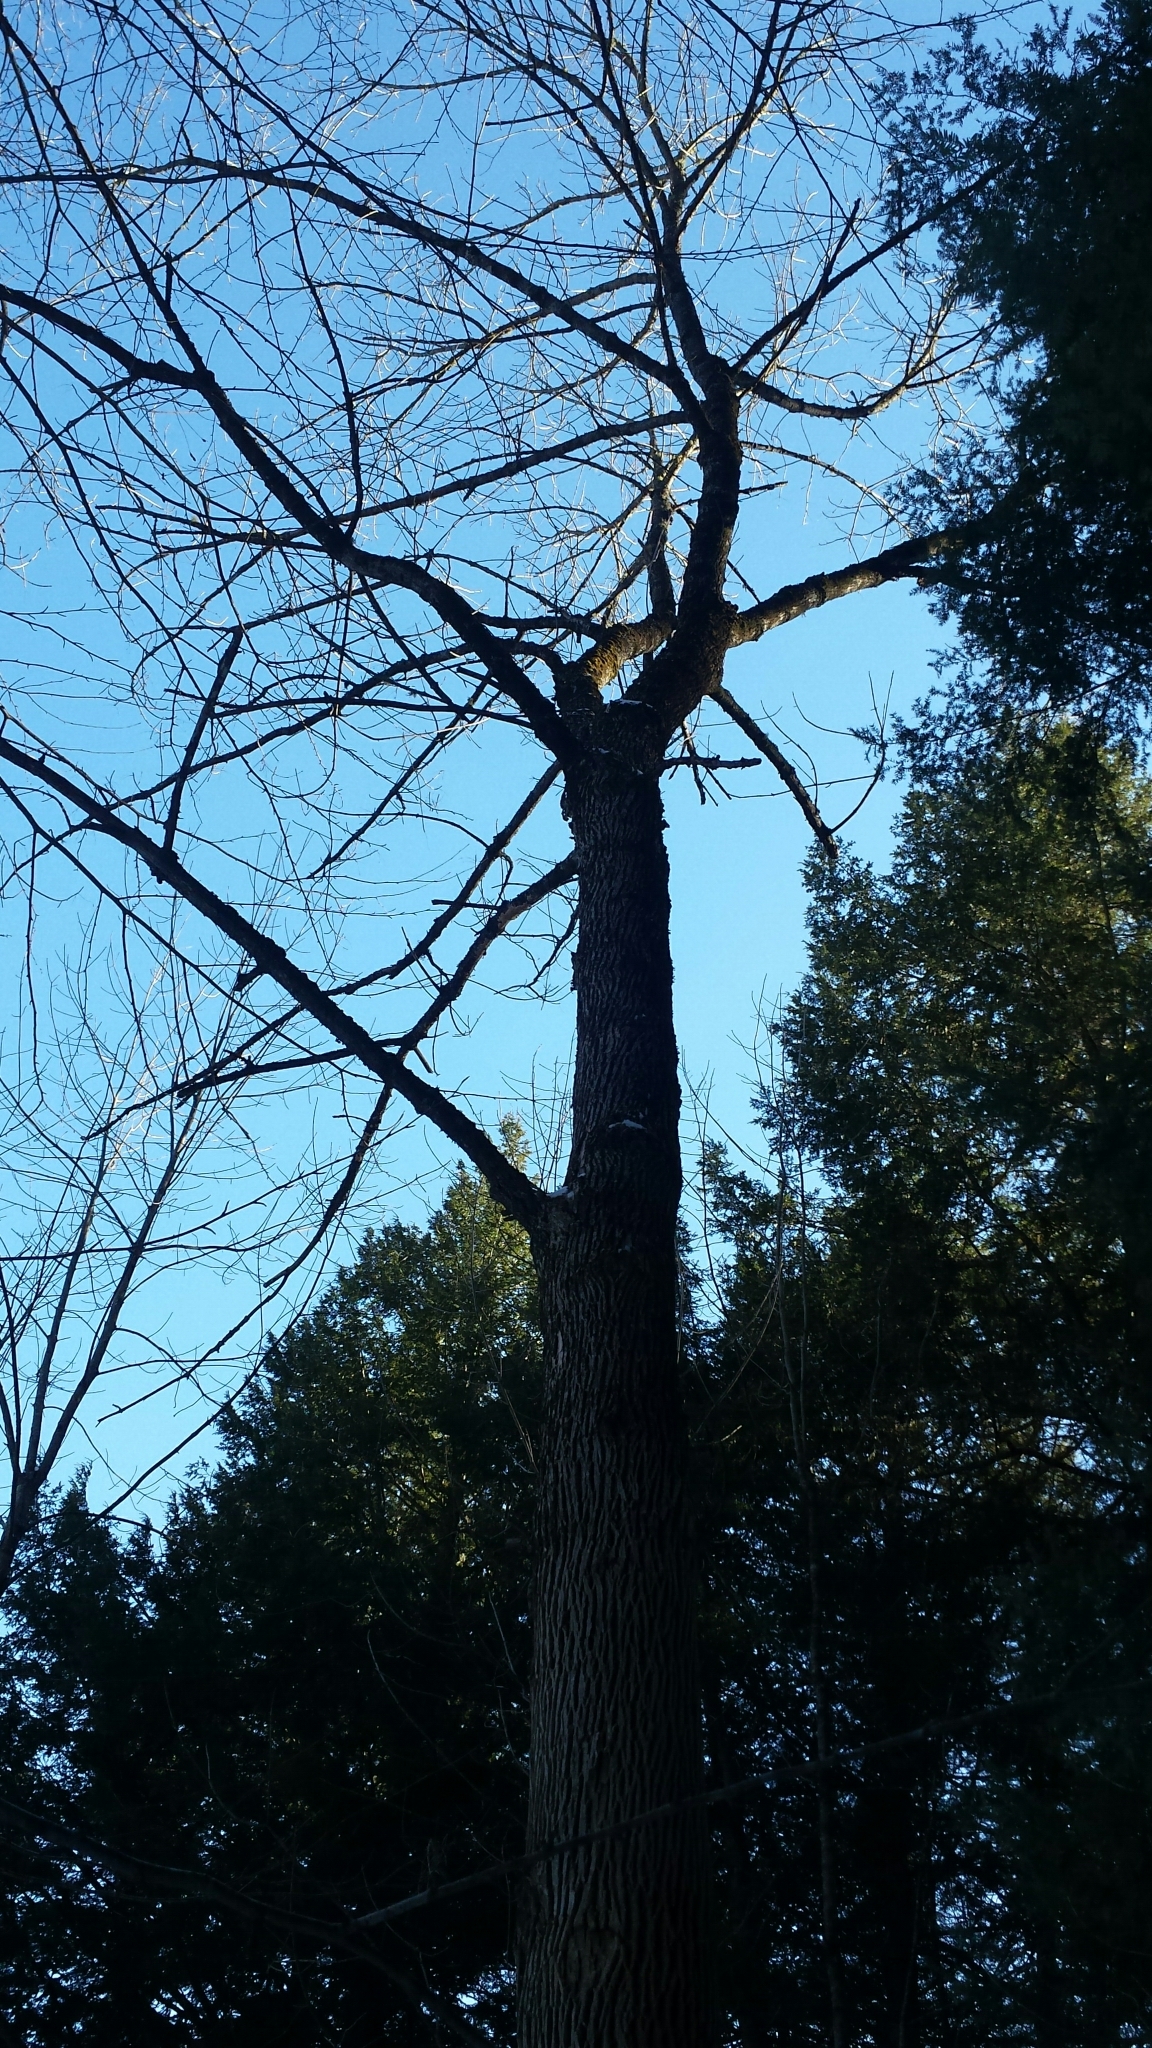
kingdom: Plantae
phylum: Tracheophyta
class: Magnoliopsida
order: Lamiales
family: Oleaceae
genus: Fraxinus
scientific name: Fraxinus americana
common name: White ash
